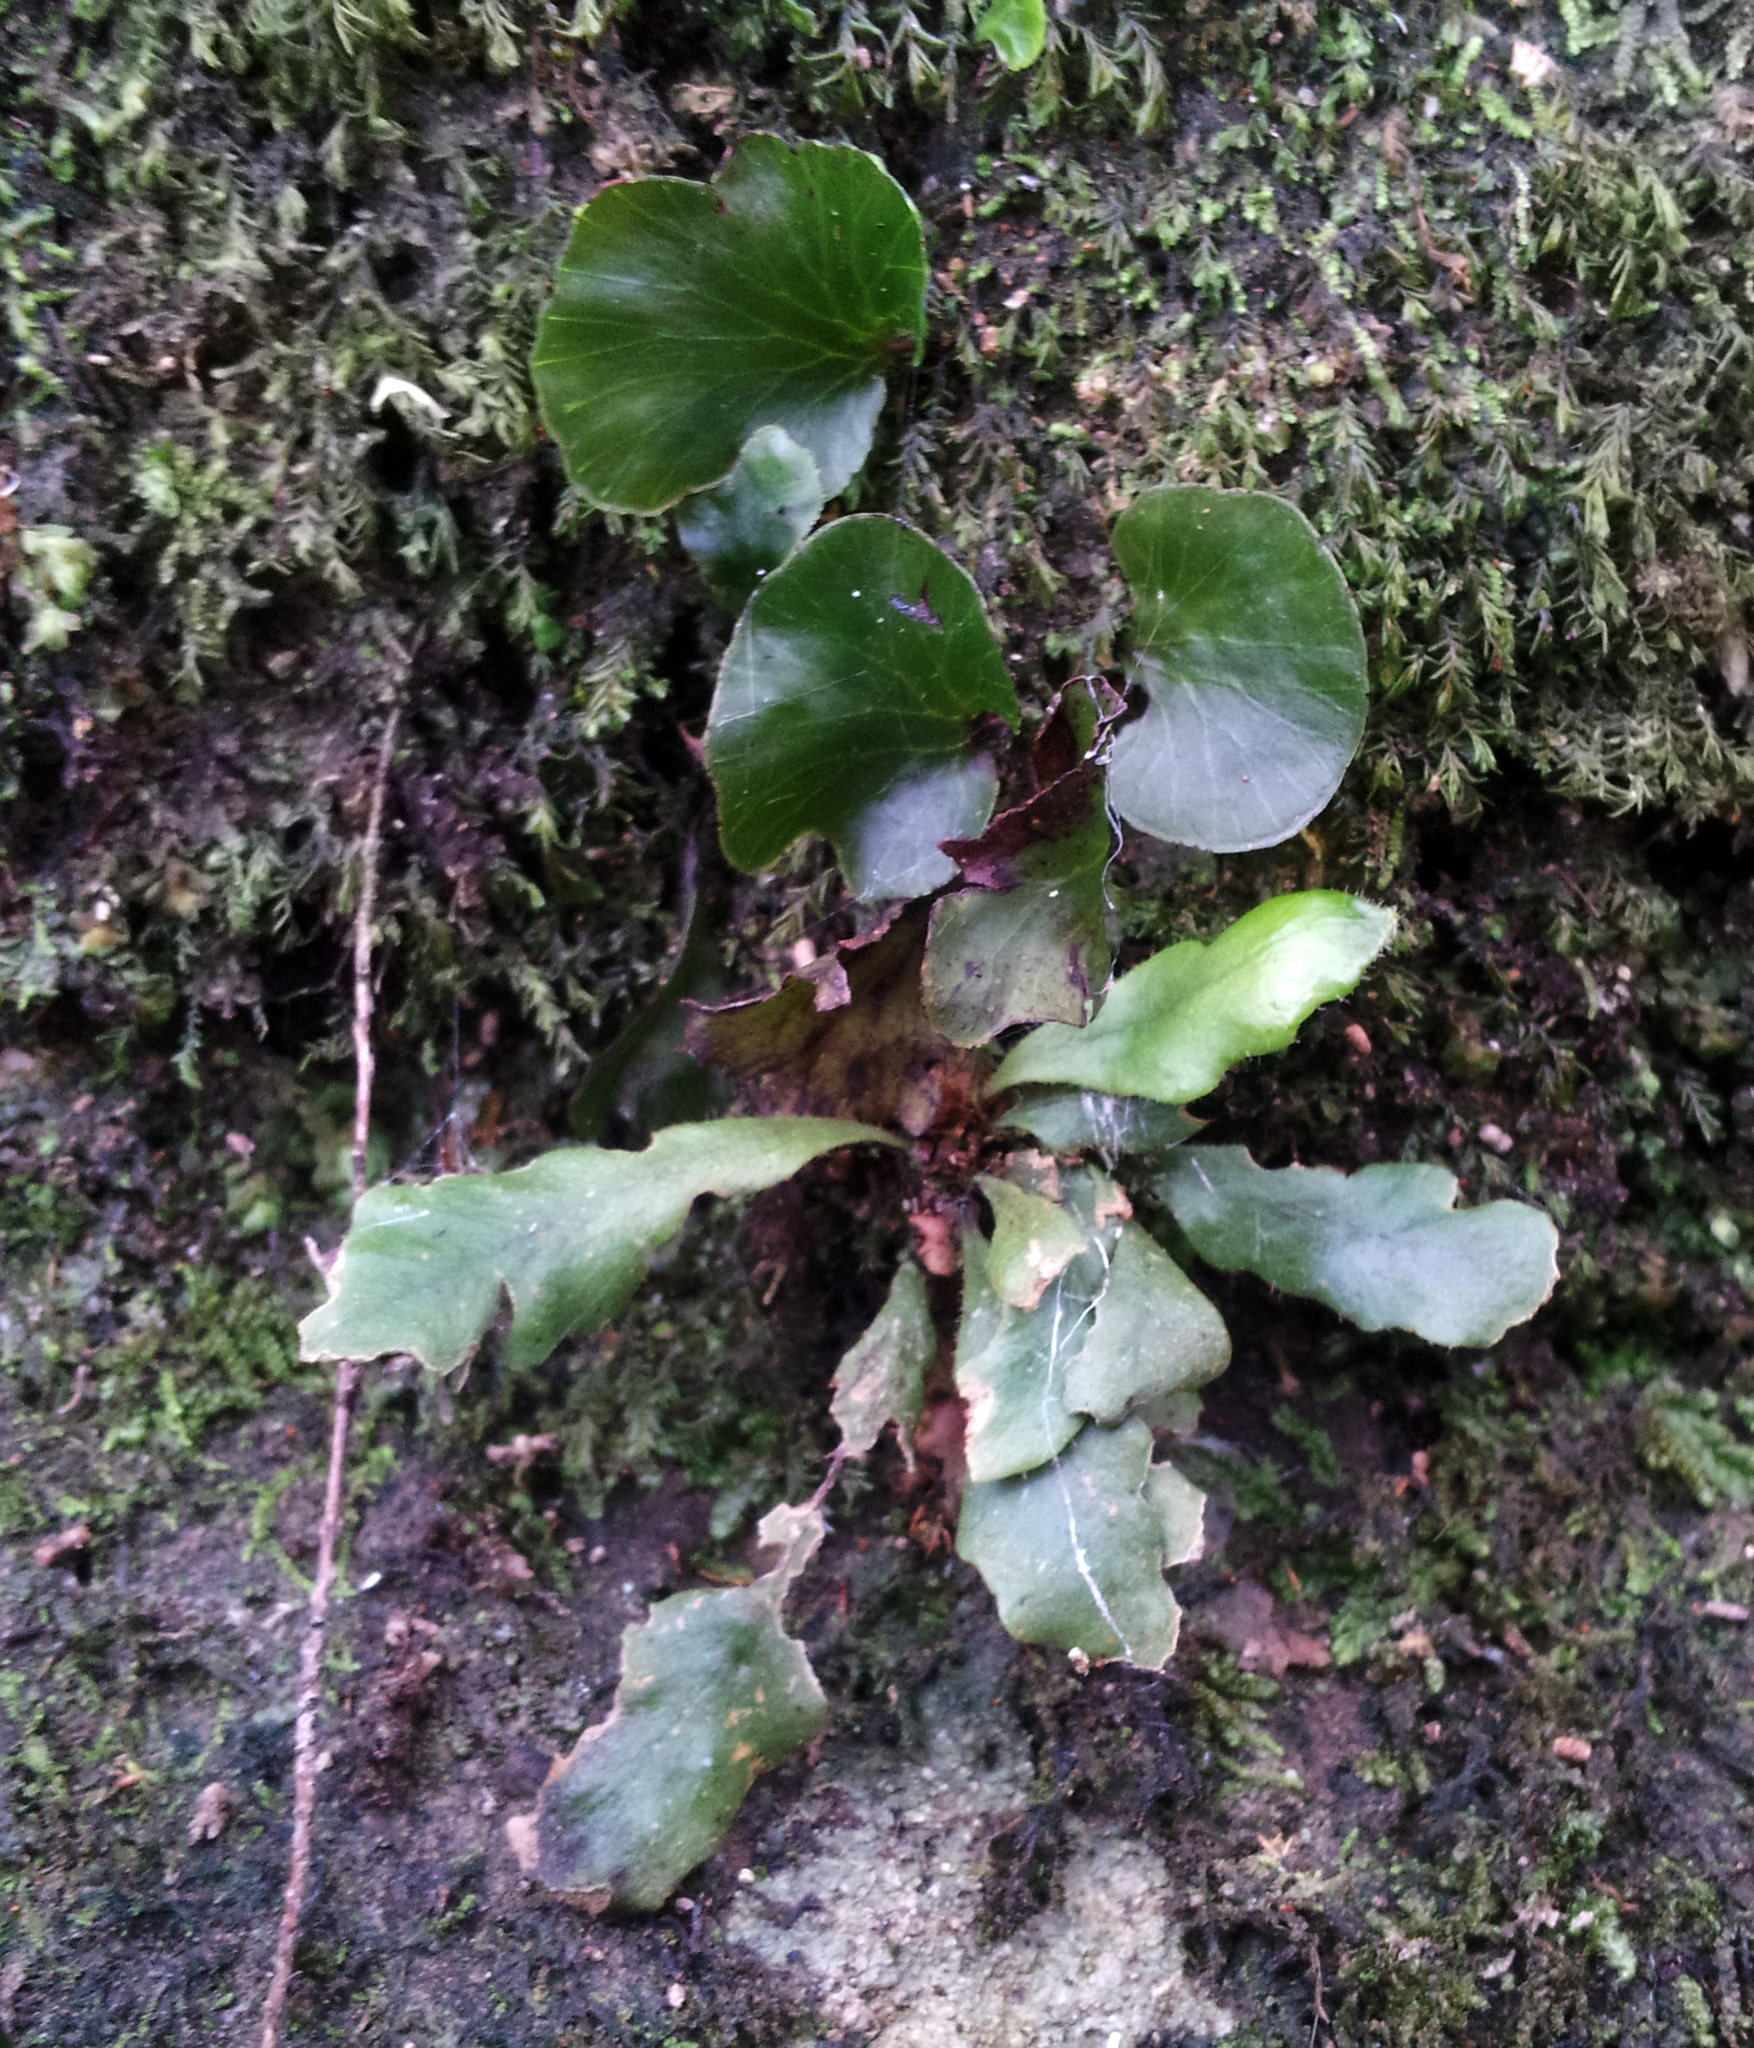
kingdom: Plantae
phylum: Tracheophyta
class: Polypodiopsida
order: Hymenophyllales
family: Hymenophyllaceae
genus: Hymenophyllum
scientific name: Hymenophyllum nephrophyllum
